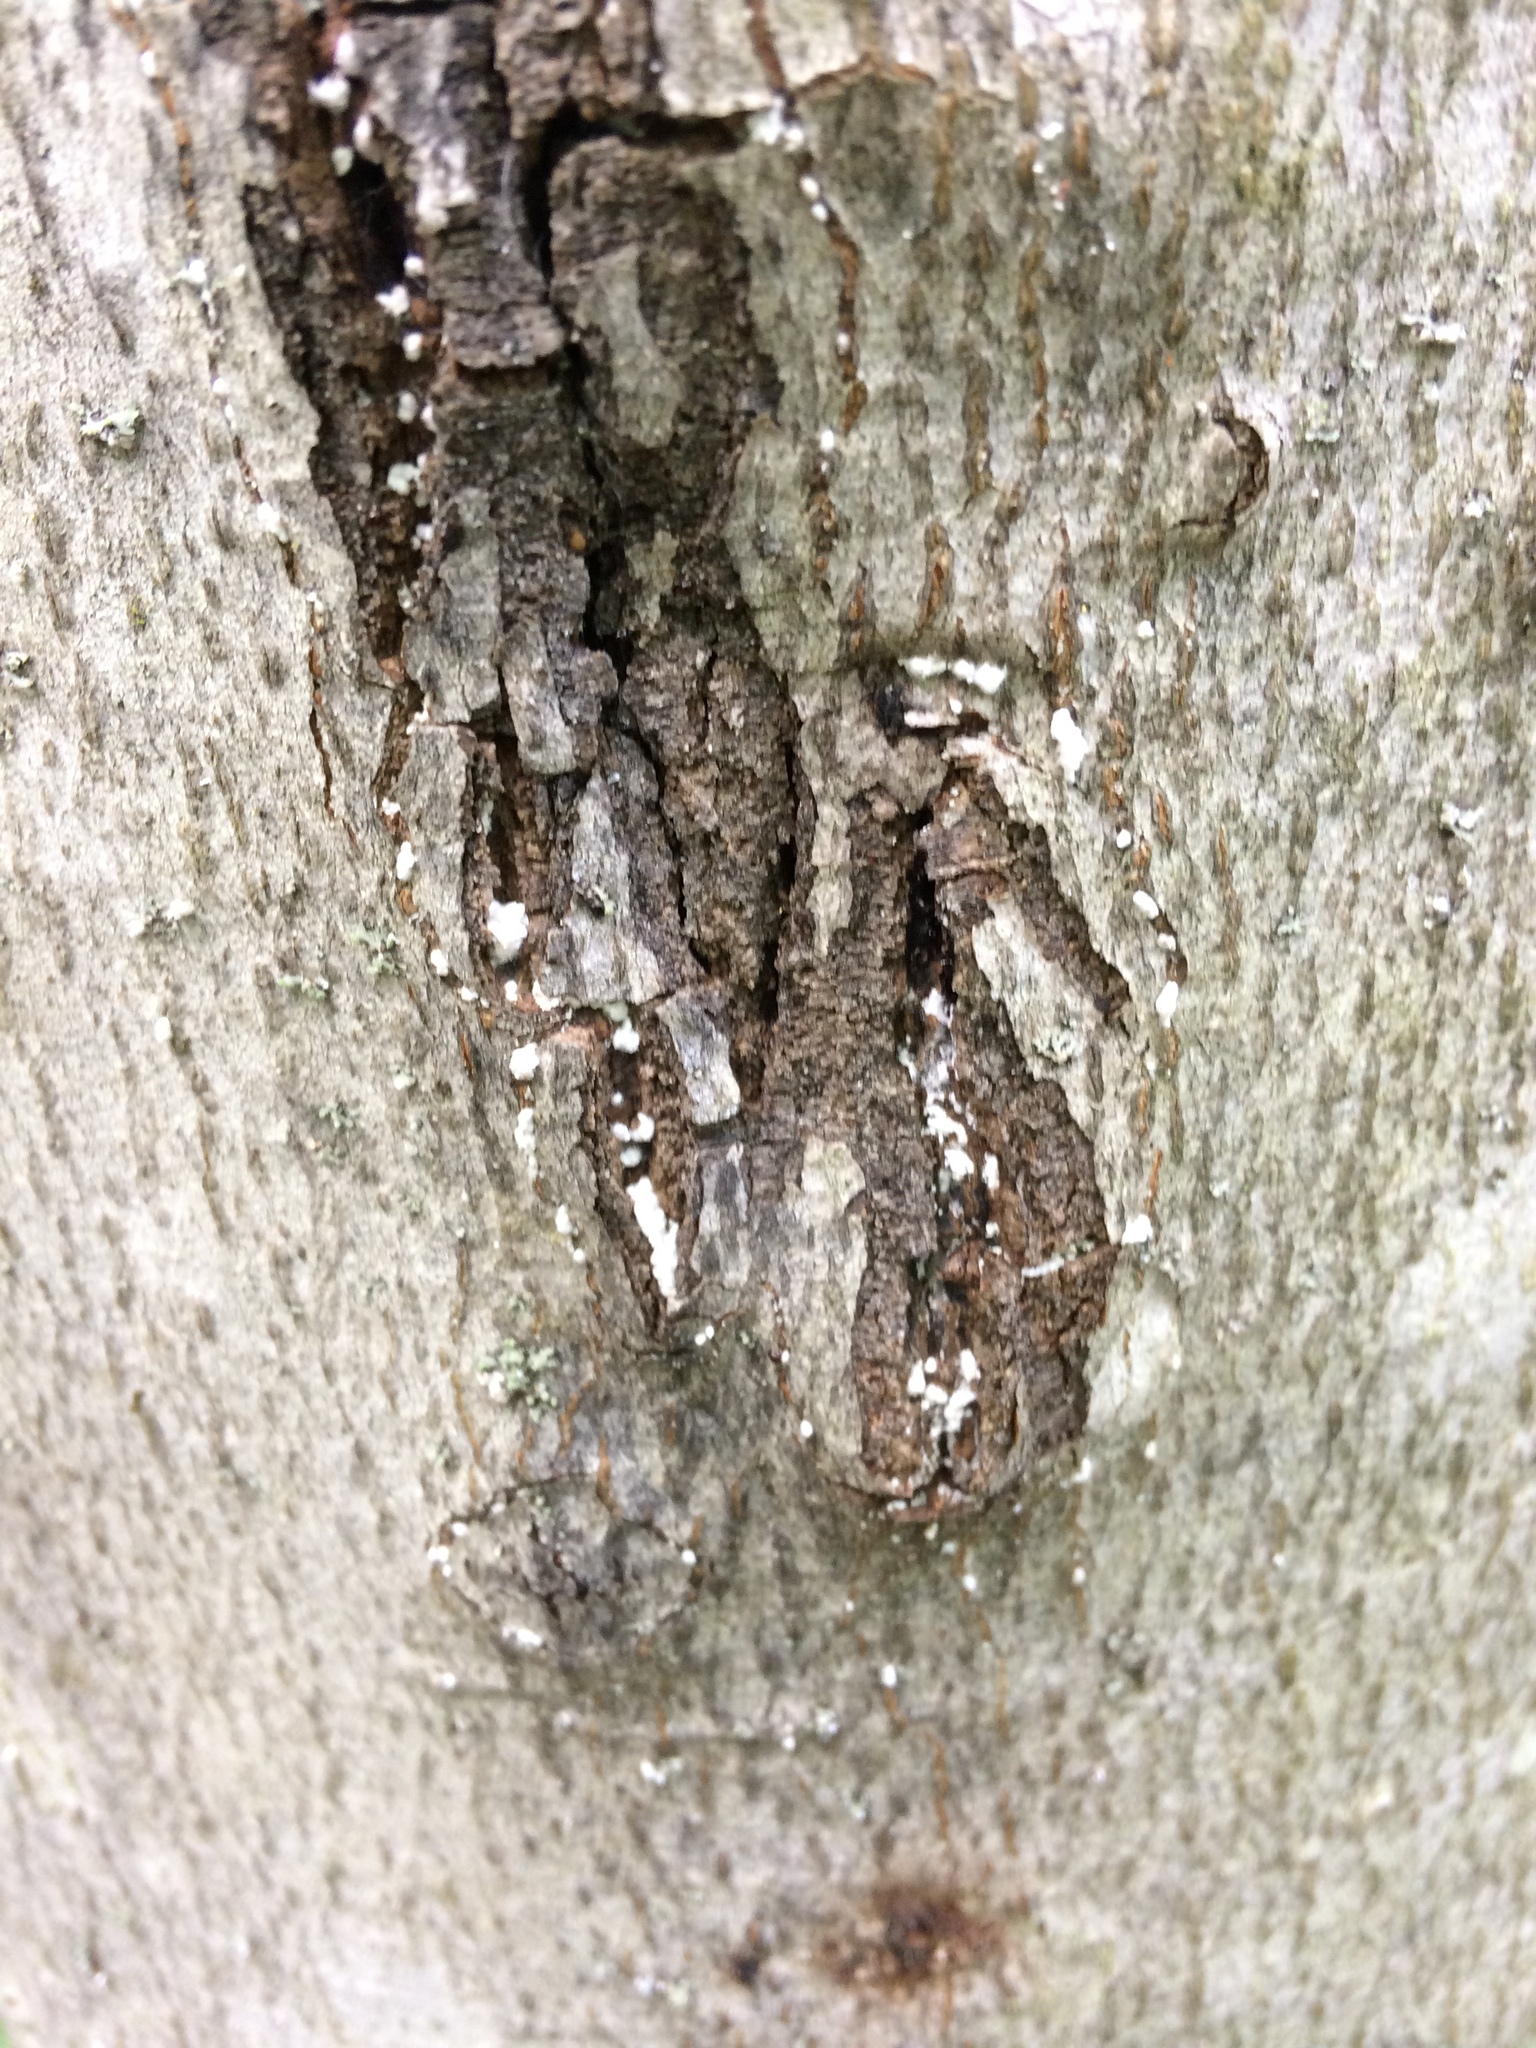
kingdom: Animalia
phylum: Arthropoda
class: Insecta
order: Hemiptera
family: Eriococcidae
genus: Cryptococcus
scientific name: Cryptococcus fagisuga
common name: Beech scale
